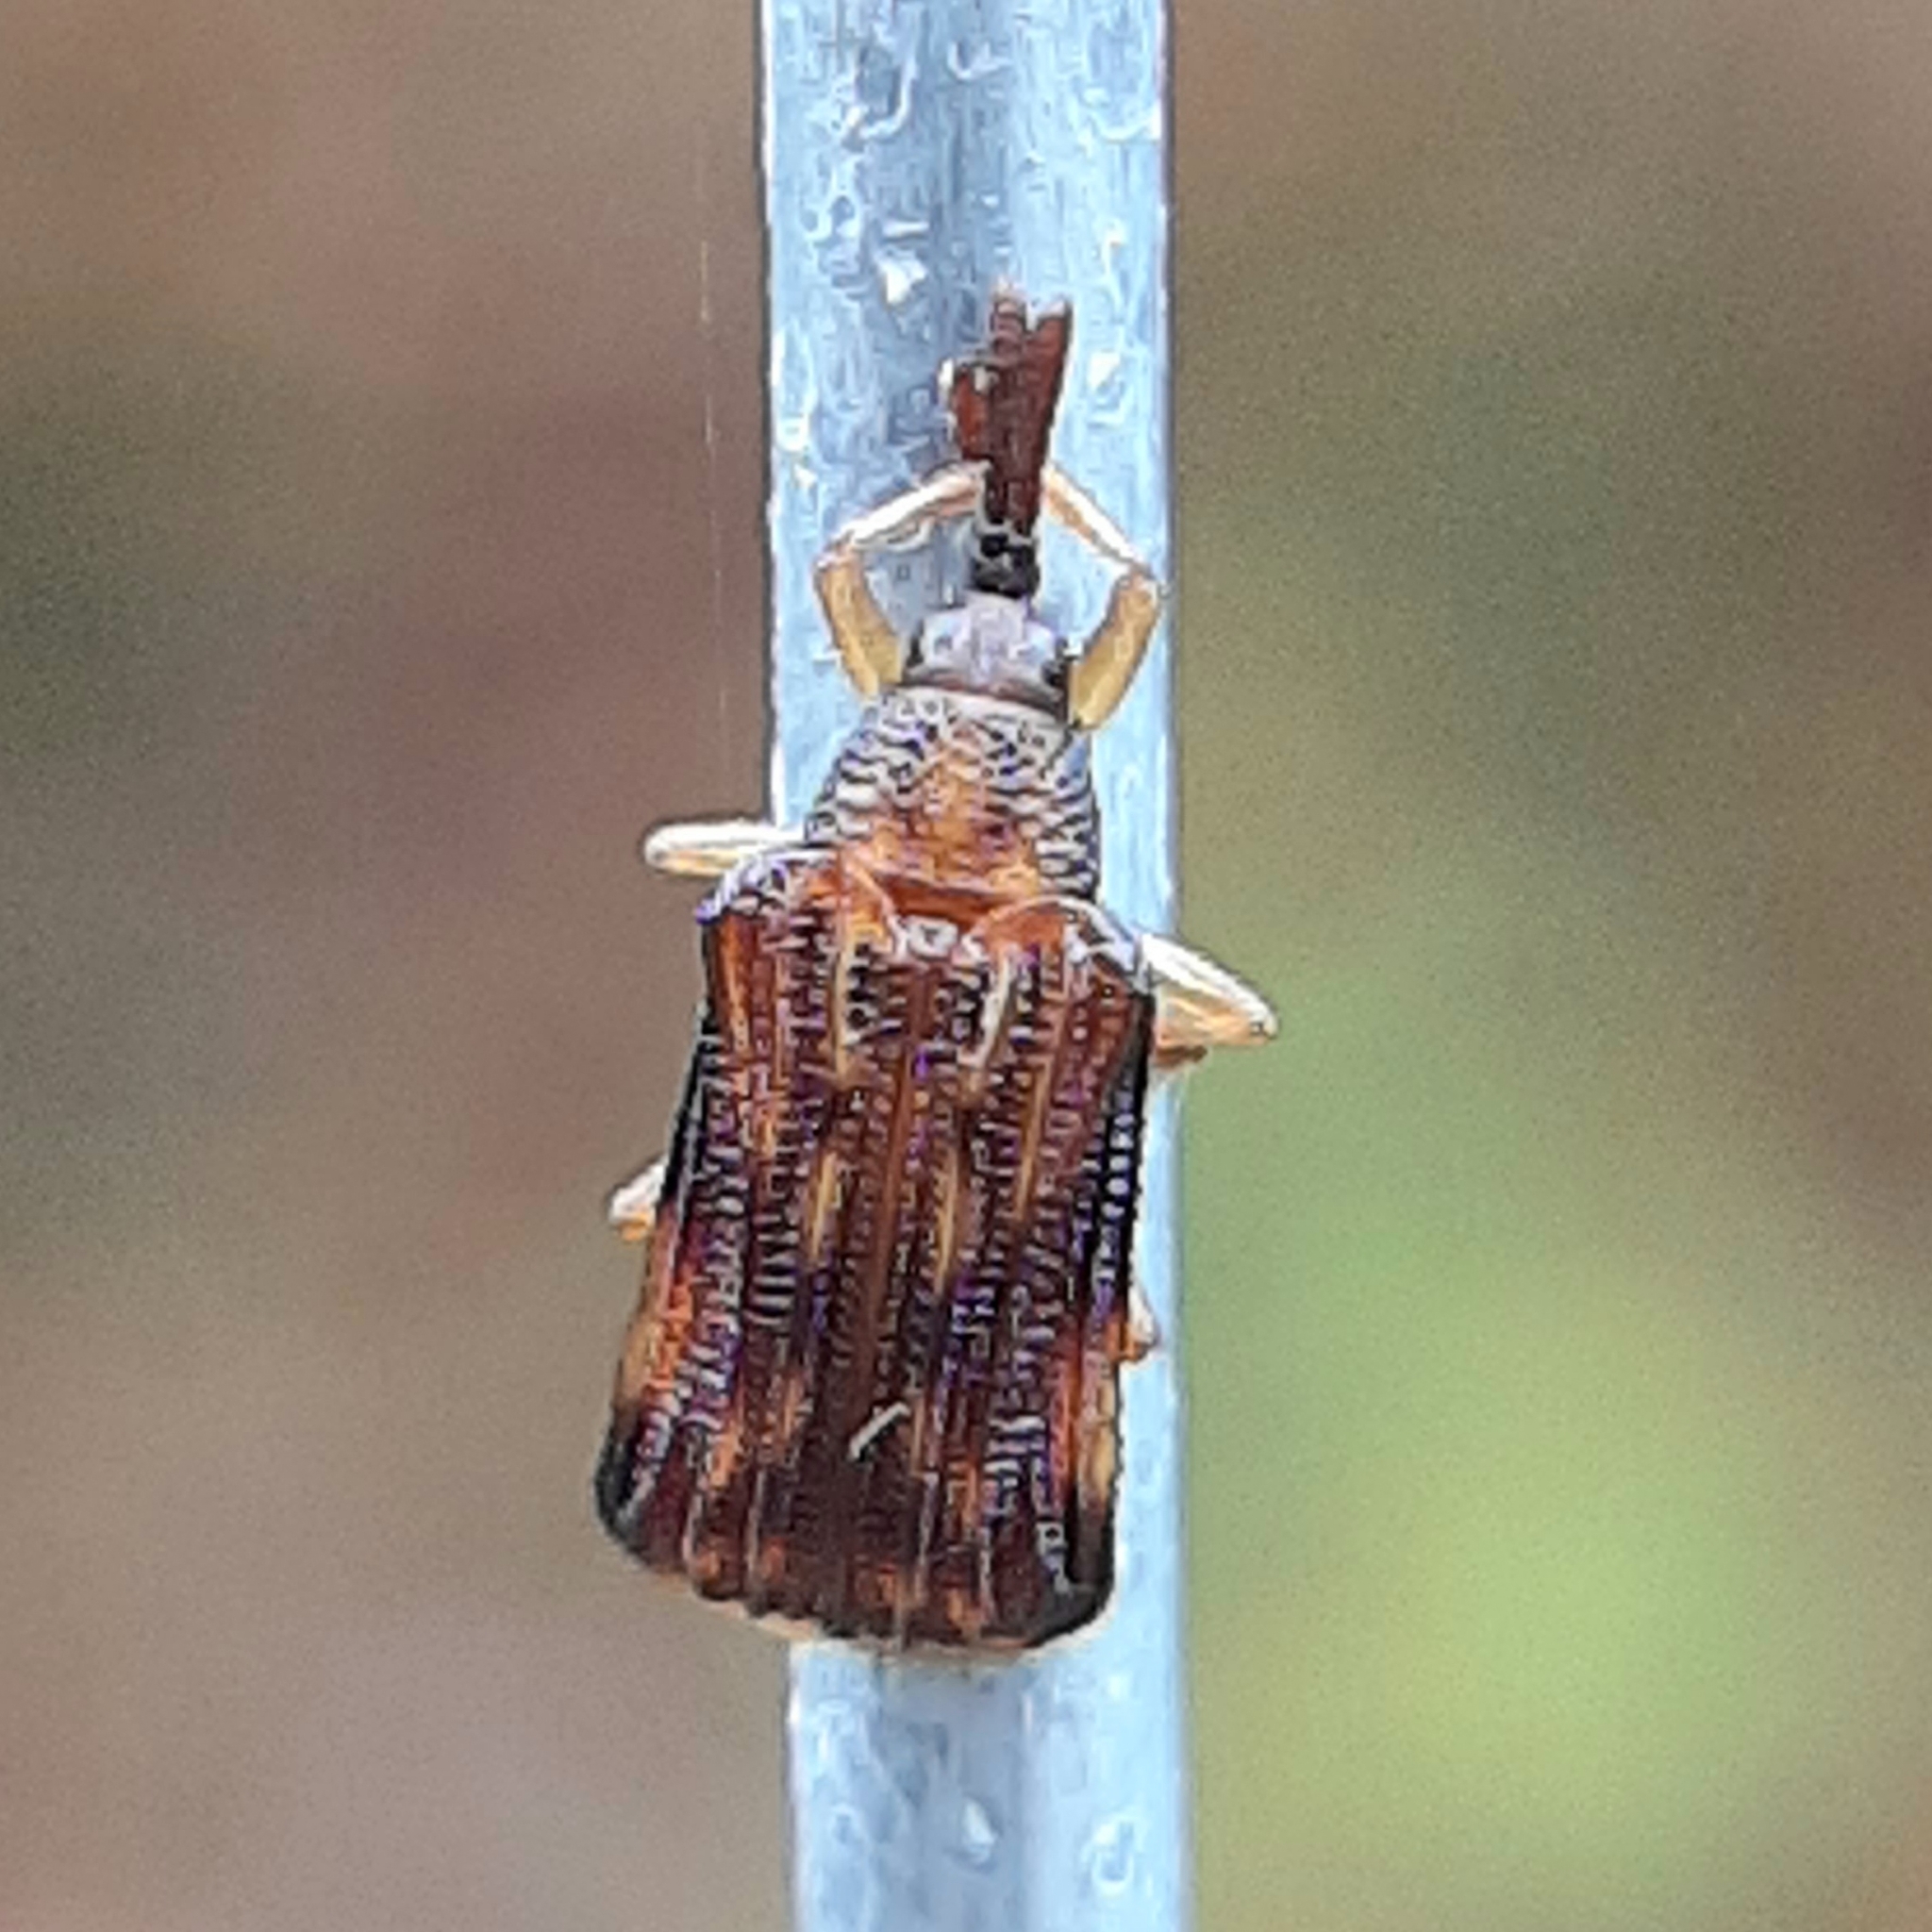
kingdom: Animalia
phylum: Arthropoda
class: Insecta
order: Coleoptera
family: Chrysomelidae
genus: Baliosus
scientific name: Baliosus nervosus
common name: Basswood leaf miner
